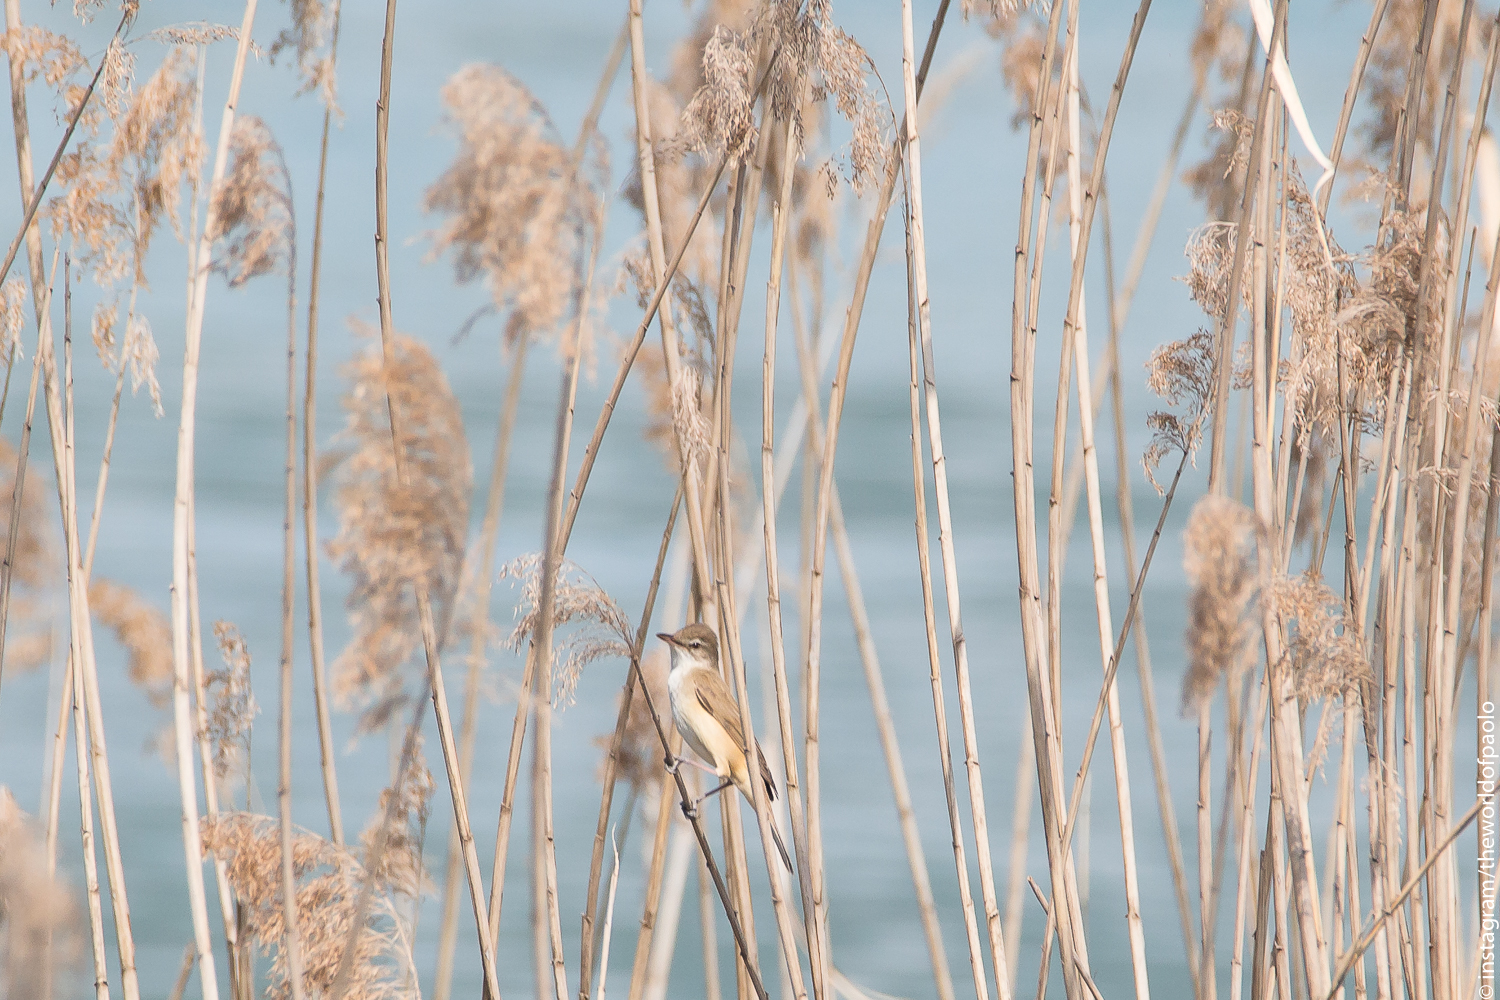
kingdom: Animalia
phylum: Chordata
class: Aves
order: Passeriformes
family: Acrocephalidae
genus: Acrocephalus
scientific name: Acrocephalus arundinaceus
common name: Great reed warbler
